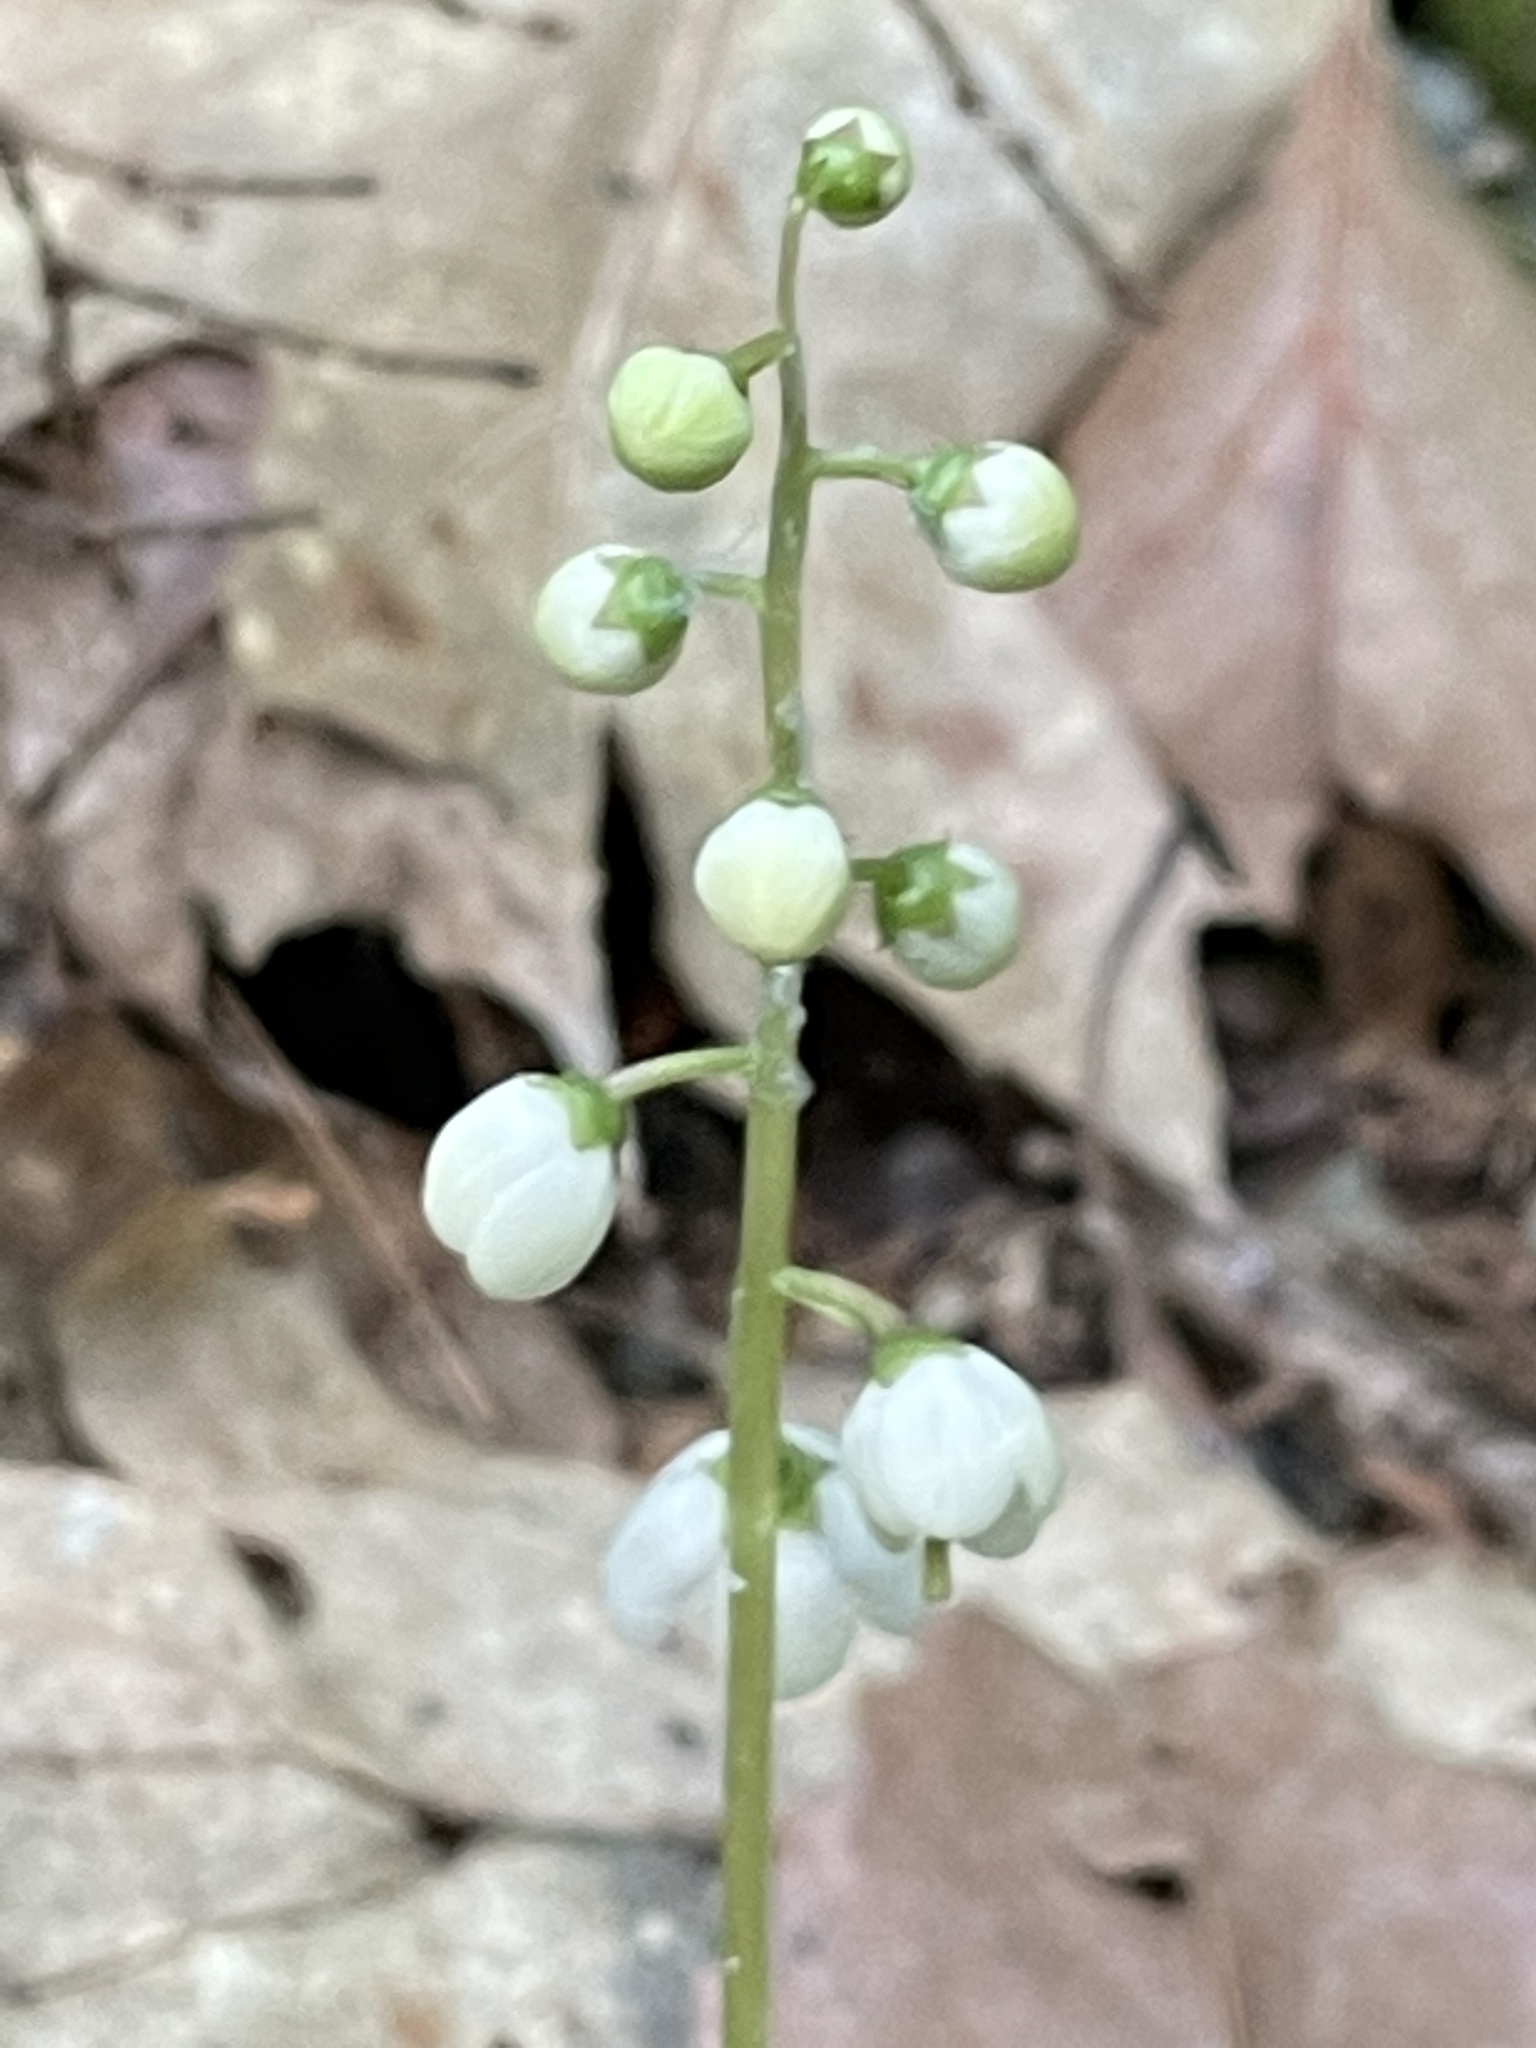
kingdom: Plantae
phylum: Tracheophyta
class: Magnoliopsida
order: Ericales
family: Ericaceae
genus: Pyrola
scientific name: Pyrola elliptica
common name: Shinleaf
